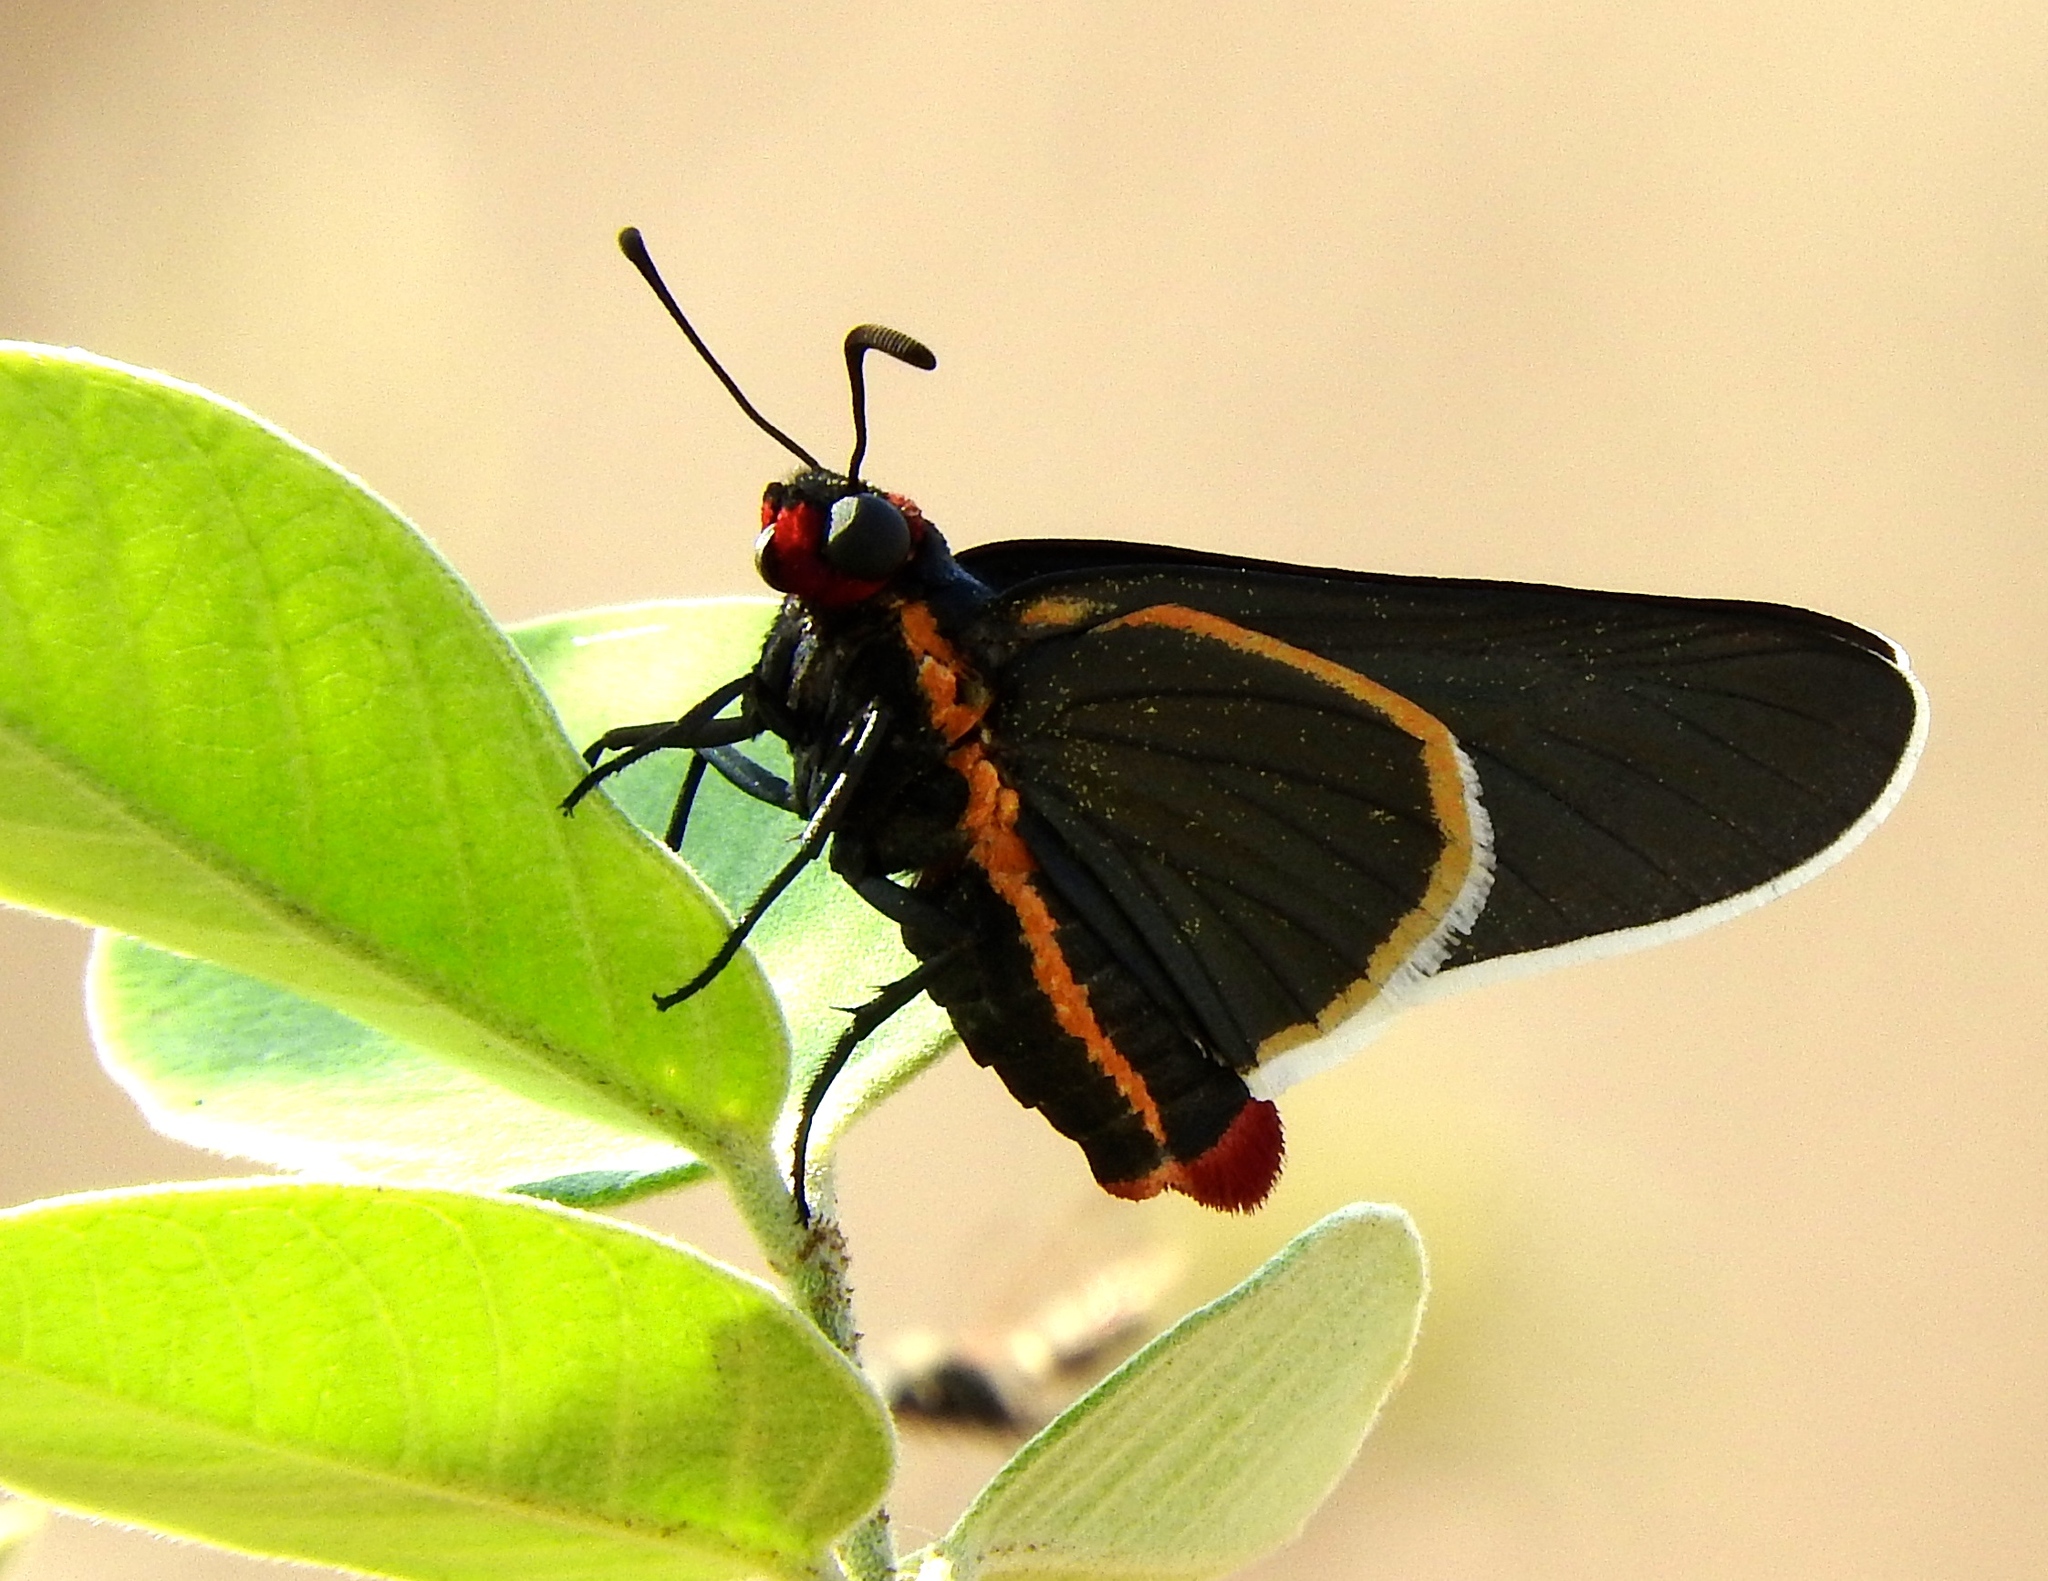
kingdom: Animalia
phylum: Arthropoda
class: Insecta
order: Lepidoptera
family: Hesperiidae
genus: Mysoria
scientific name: Mysoria affinis
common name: Red-collared firetip
